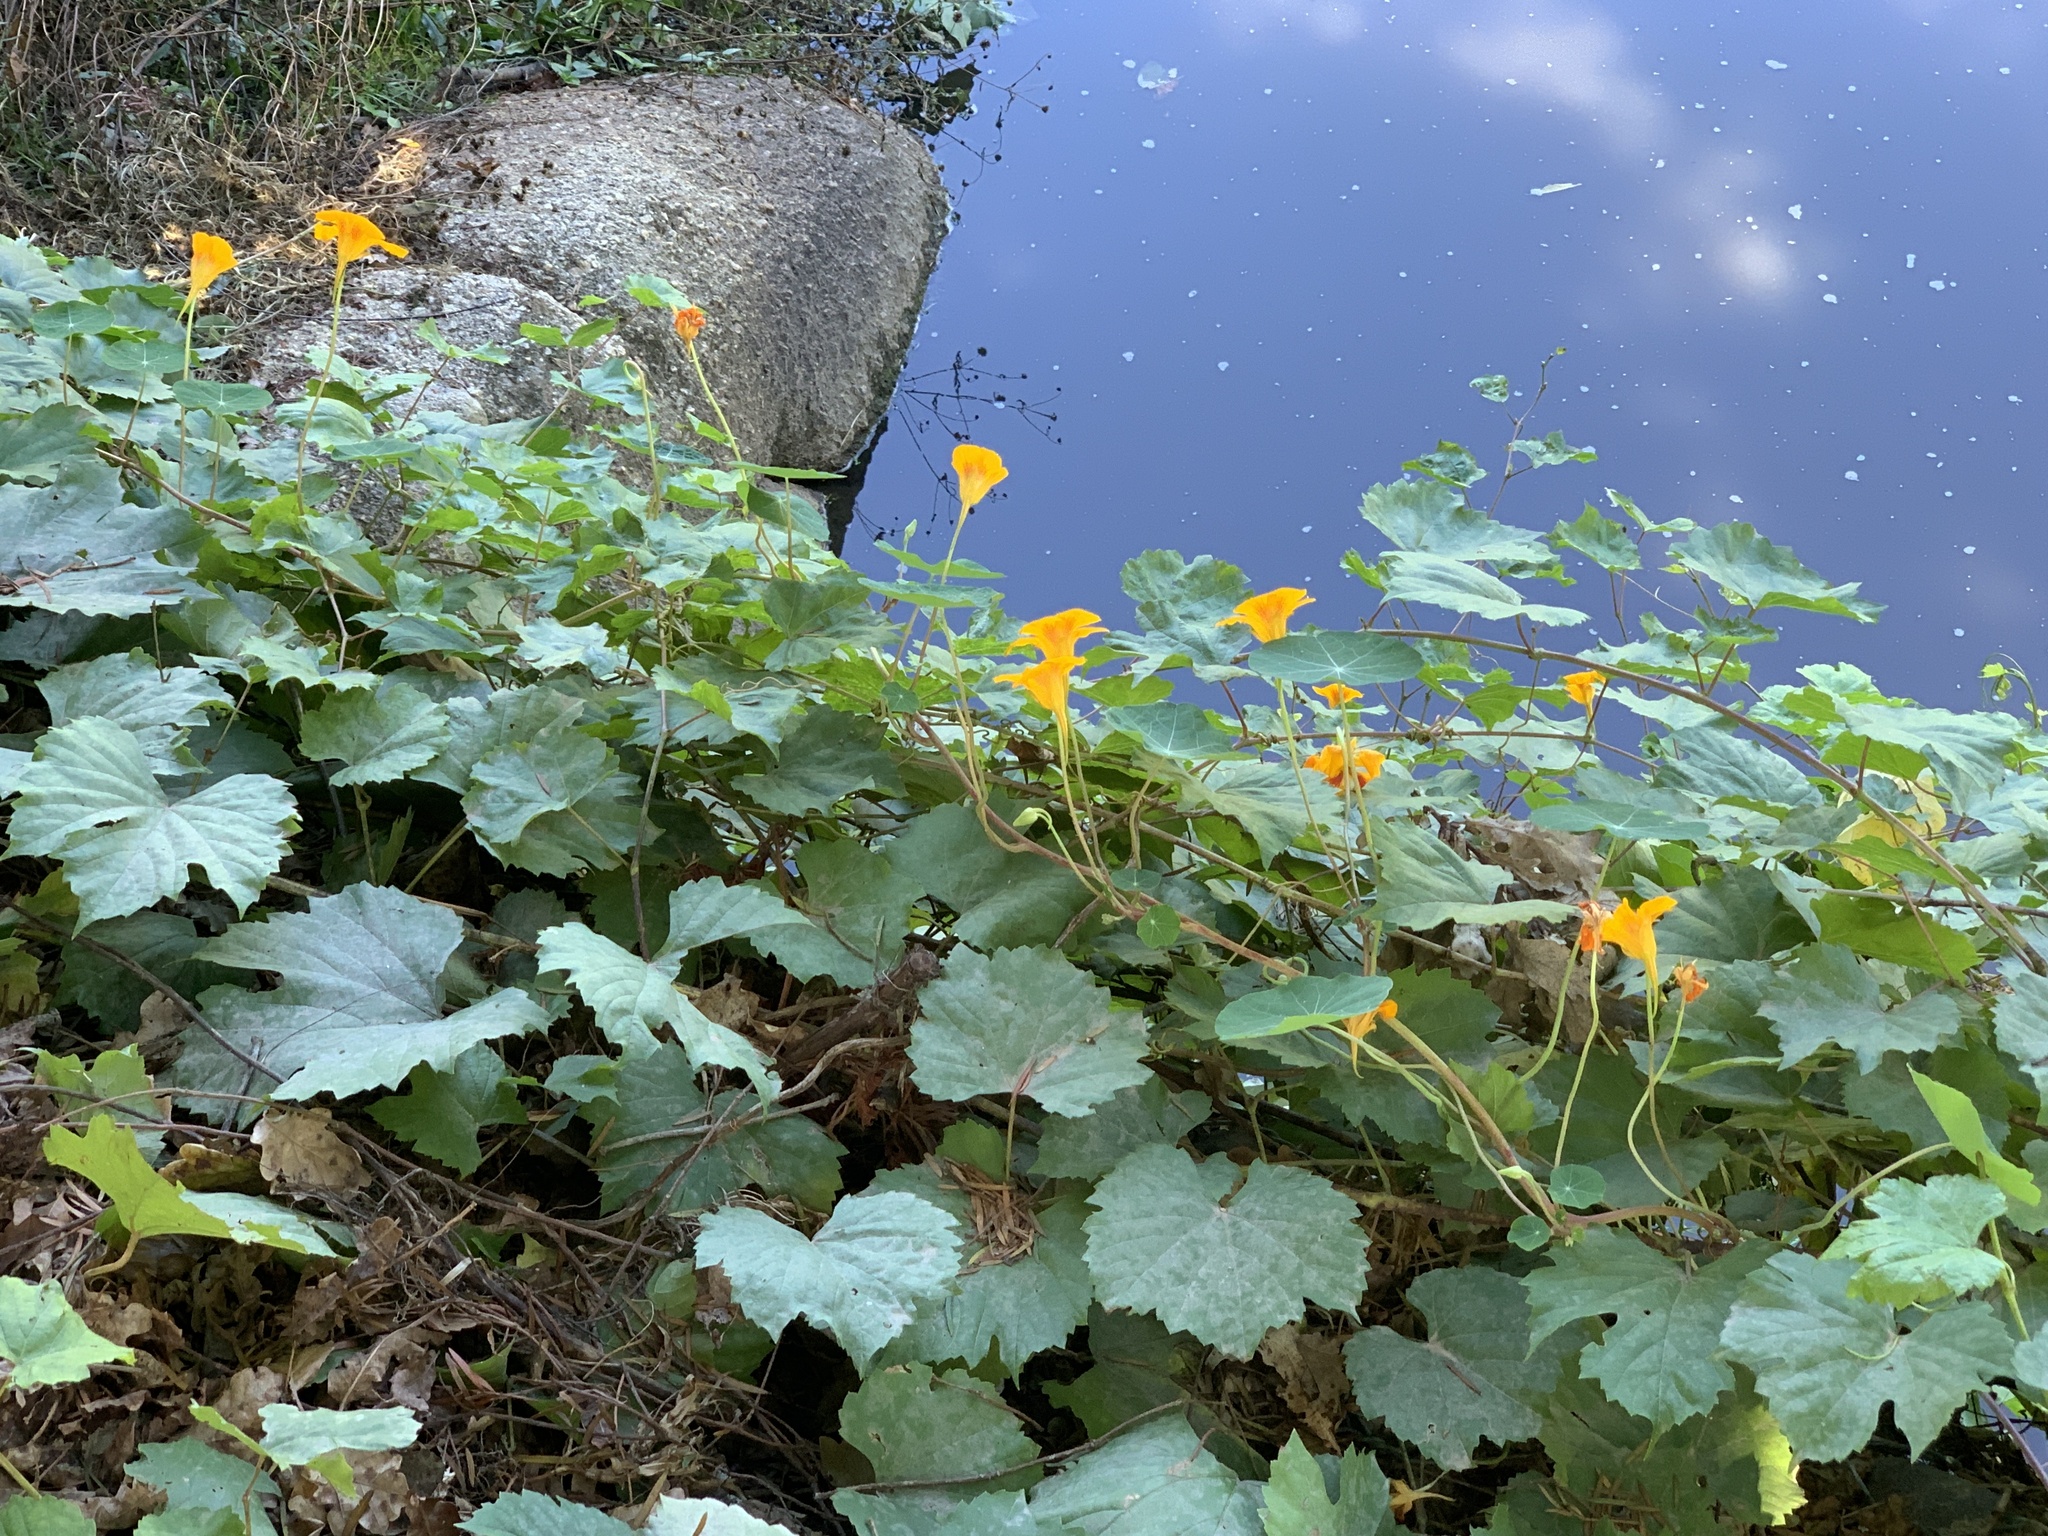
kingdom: Plantae
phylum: Tracheophyta
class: Magnoliopsida
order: Brassicales
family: Tropaeolaceae
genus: Tropaeolum
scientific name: Tropaeolum majus
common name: Nasturtium
